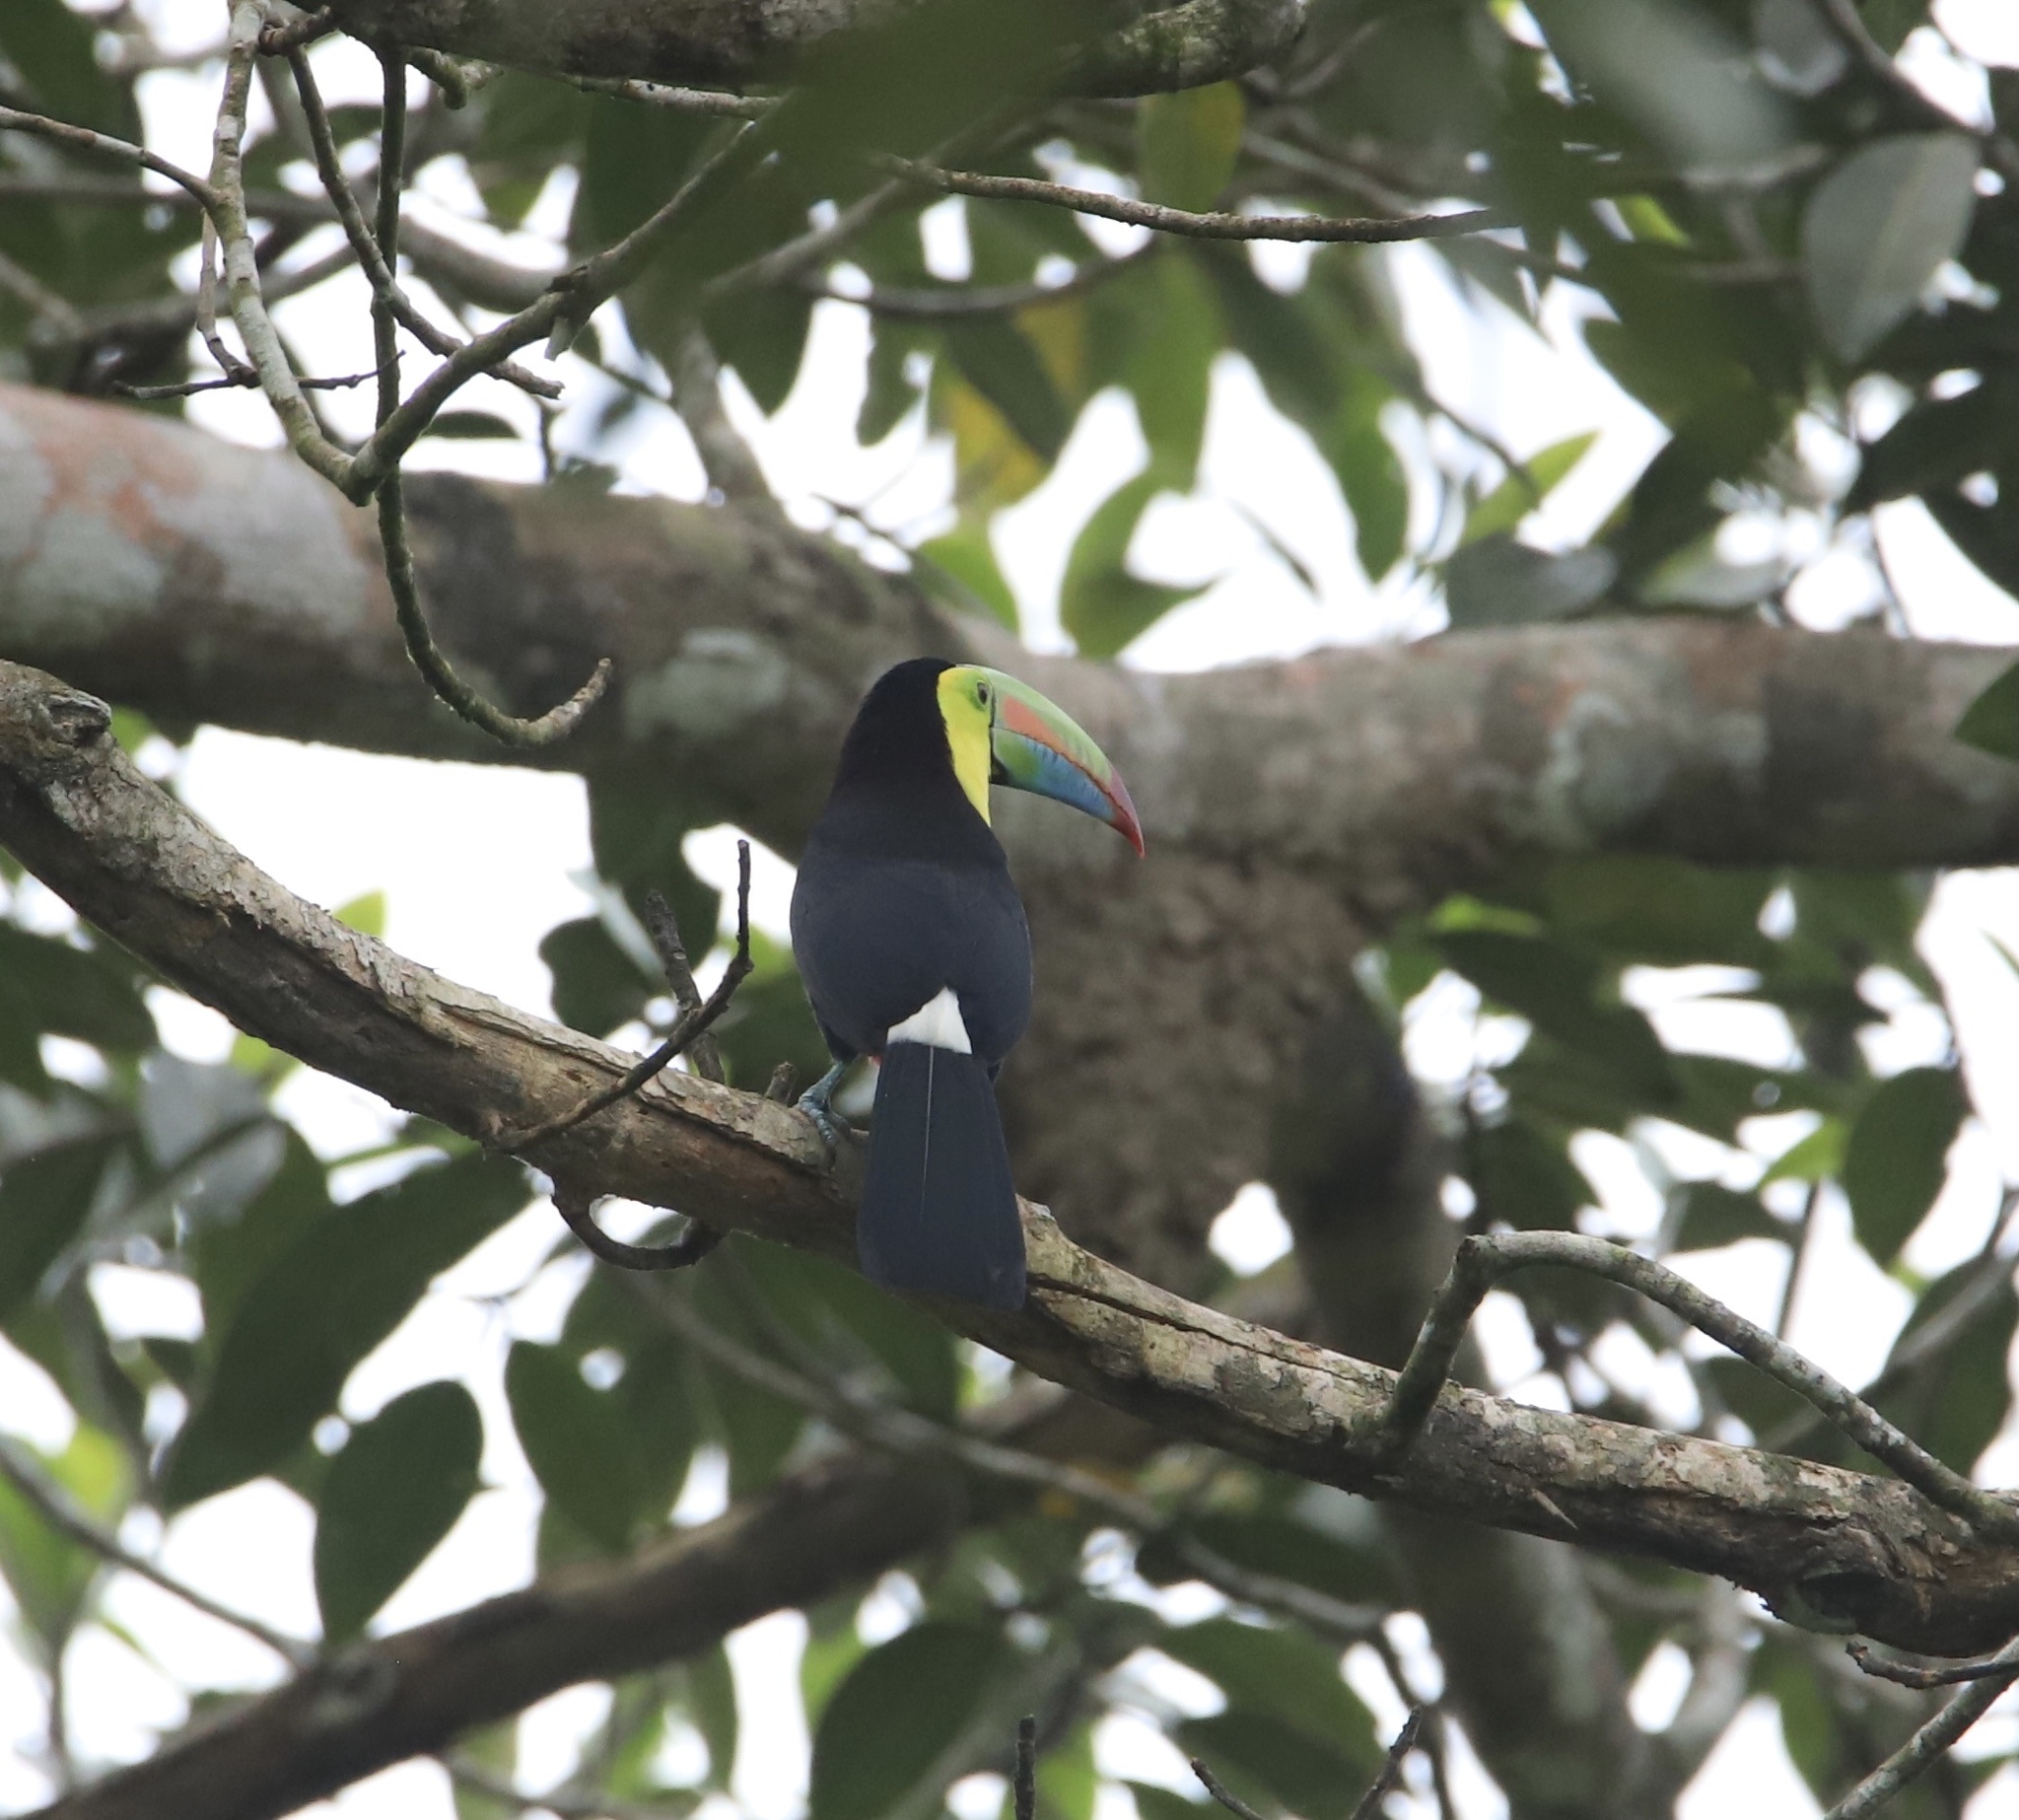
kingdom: Animalia
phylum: Chordata
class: Aves
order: Piciformes
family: Ramphastidae
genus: Ramphastos
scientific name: Ramphastos sulfuratus
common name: Keel-billed toucan
